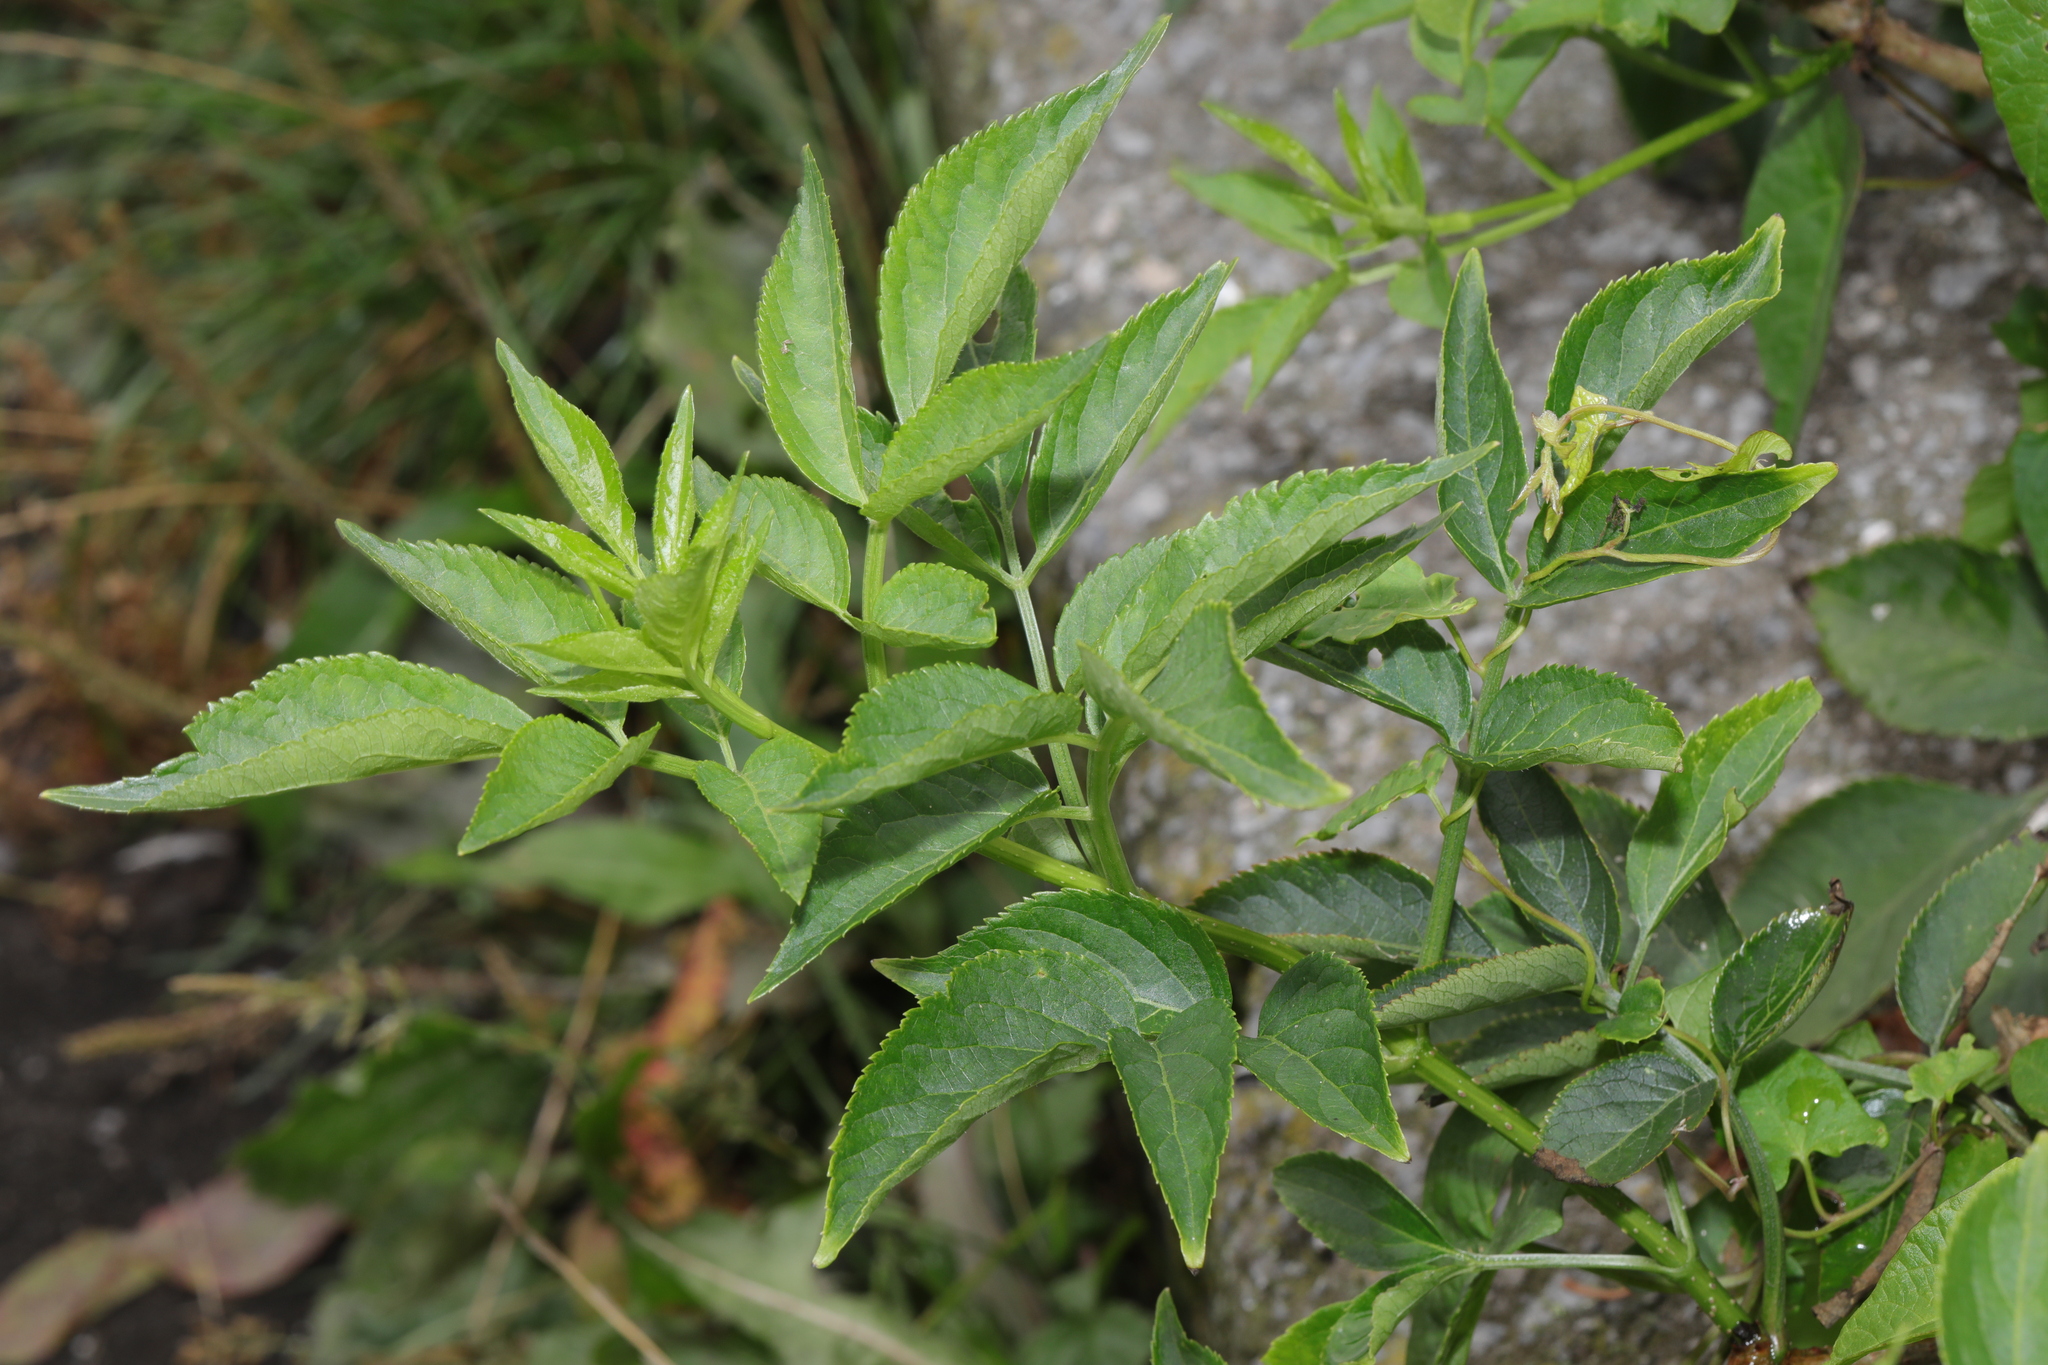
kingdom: Plantae
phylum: Tracheophyta
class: Magnoliopsida
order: Dipsacales
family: Viburnaceae
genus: Sambucus
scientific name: Sambucus nigra
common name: Elder
